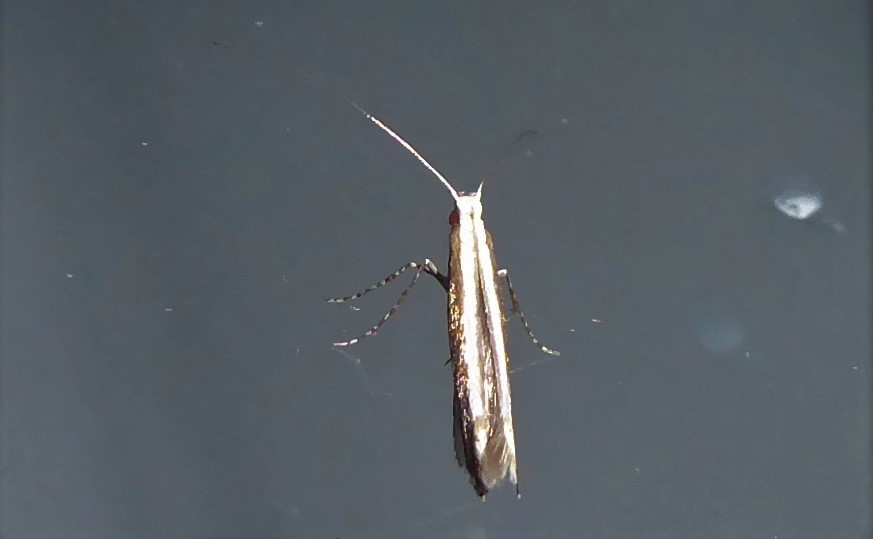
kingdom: Animalia
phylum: Arthropoda
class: Insecta
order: Lepidoptera
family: Gracillariidae
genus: Acrocercops
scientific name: Acrocercops laciniella
